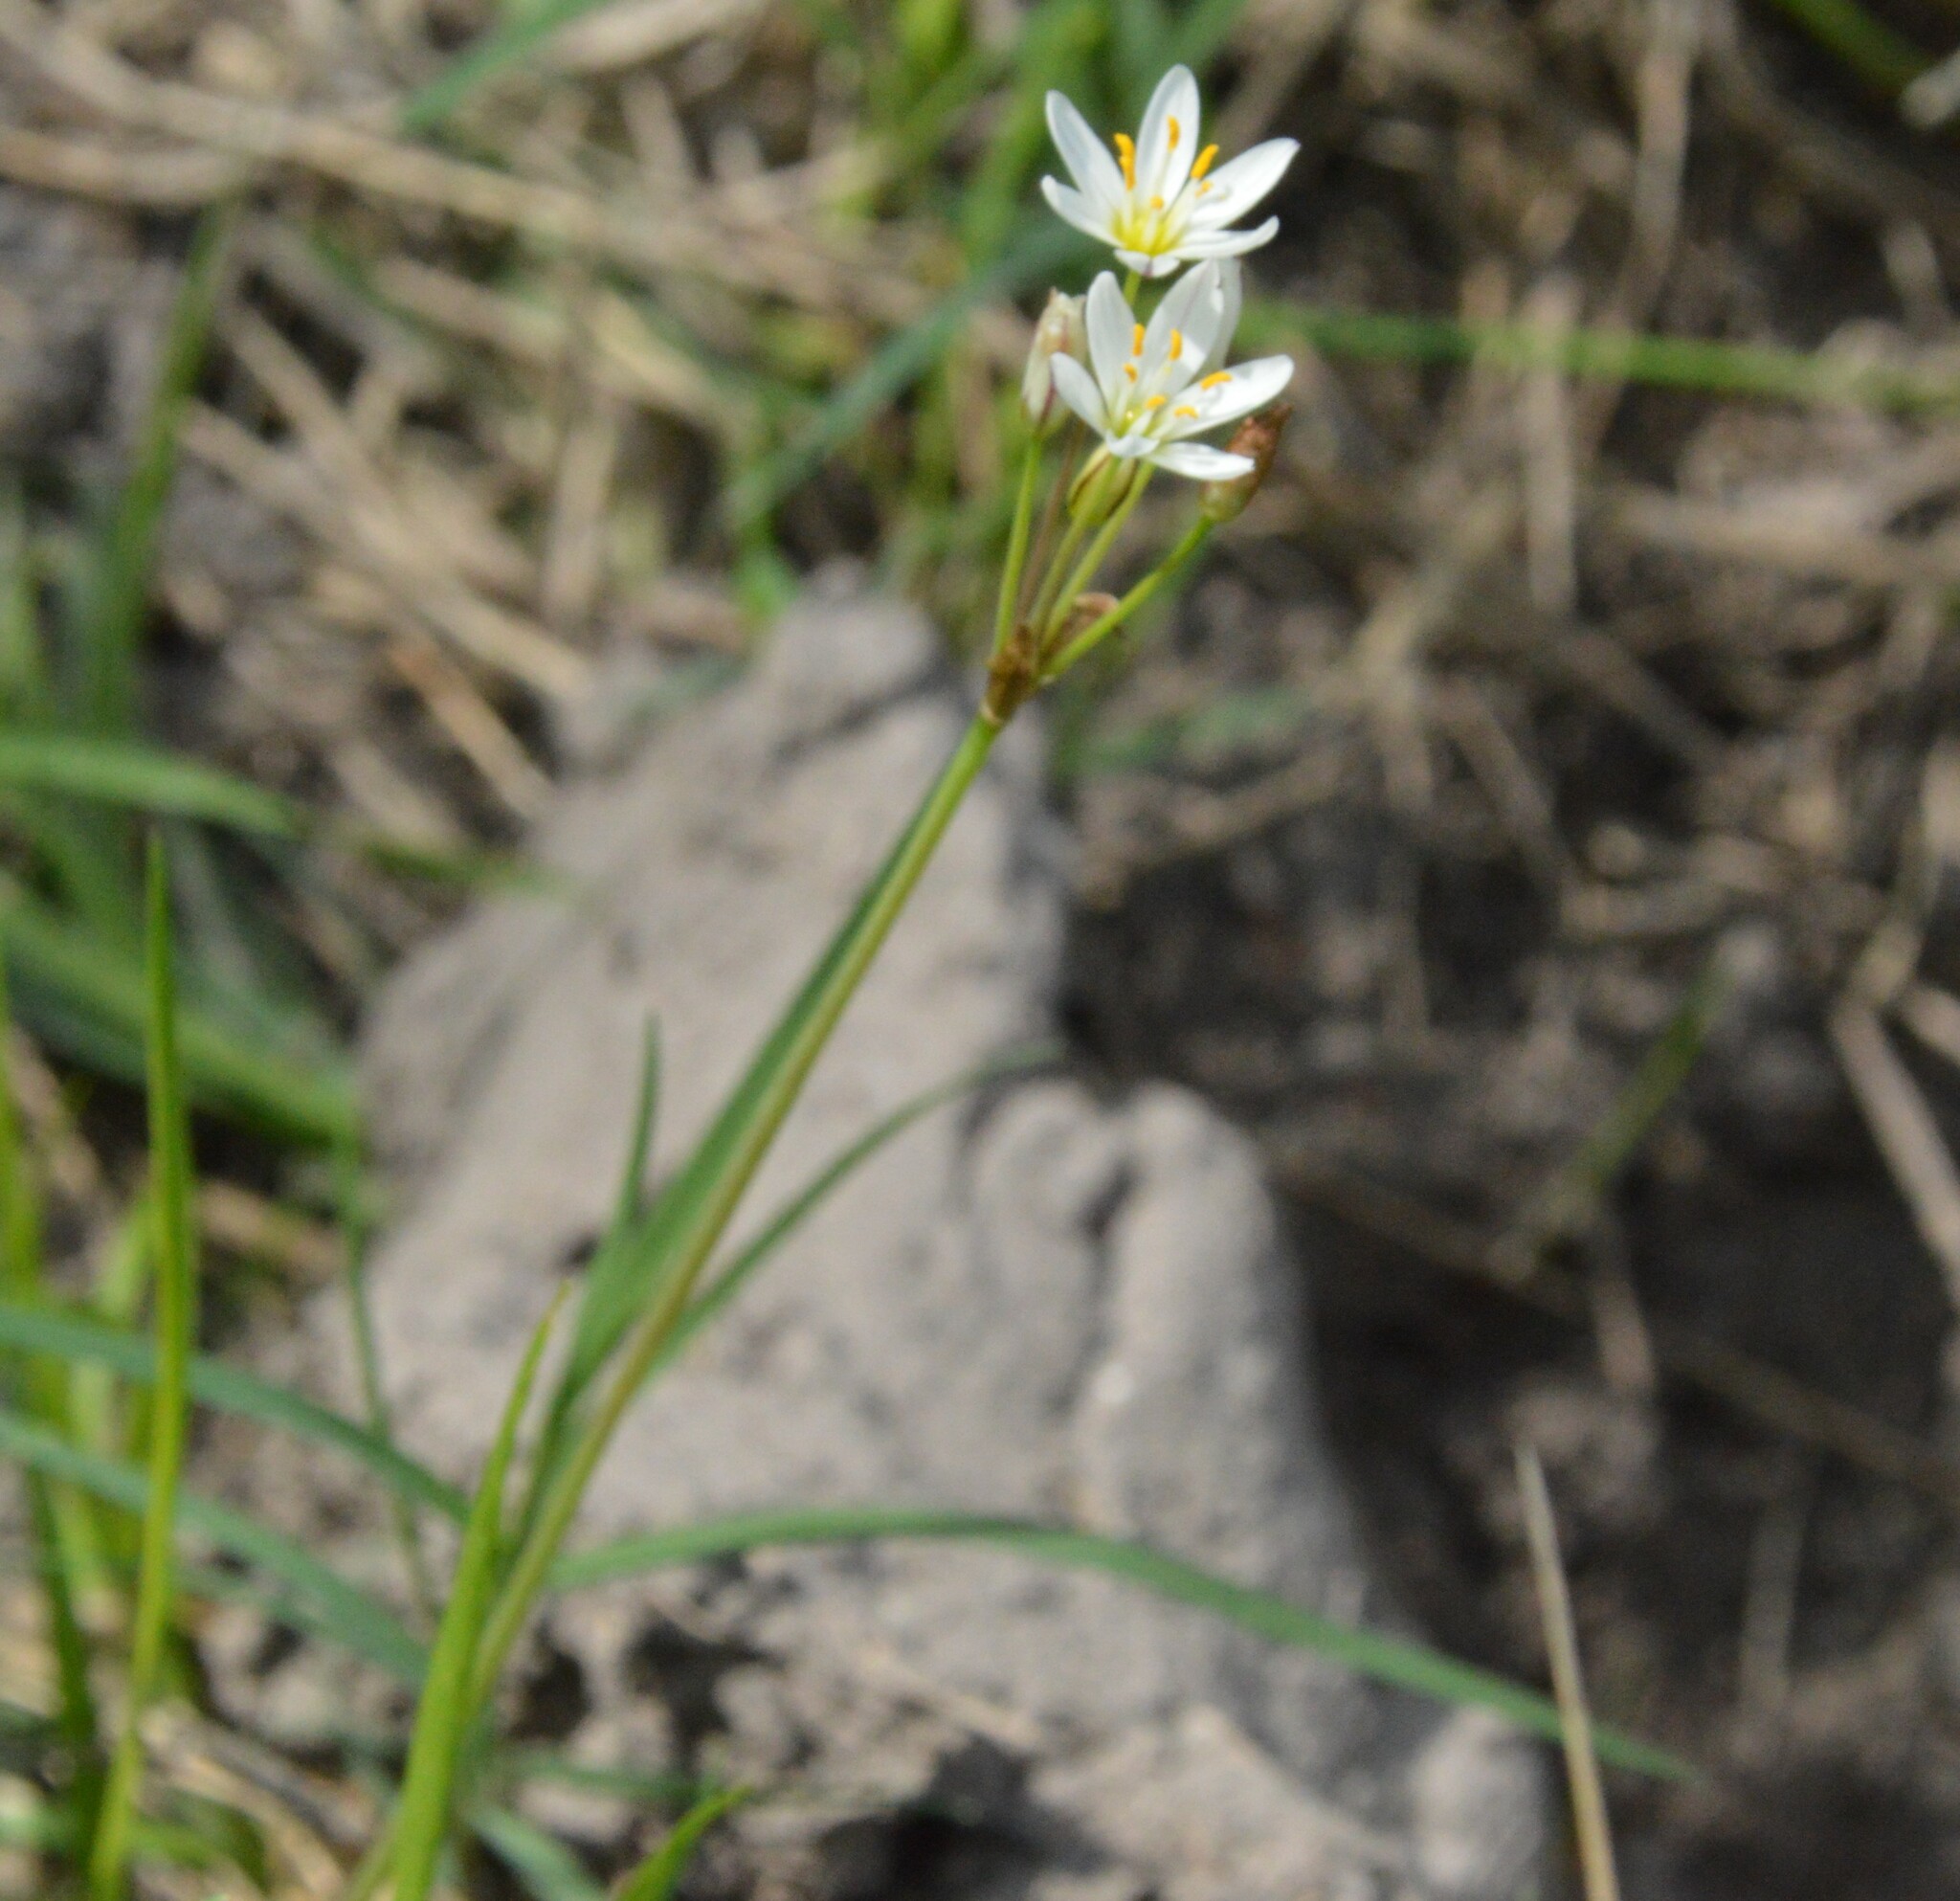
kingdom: Plantae
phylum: Tracheophyta
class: Liliopsida
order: Asparagales
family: Amaryllidaceae
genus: Nothoscordum
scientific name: Nothoscordum bivalve
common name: Crow-poison
